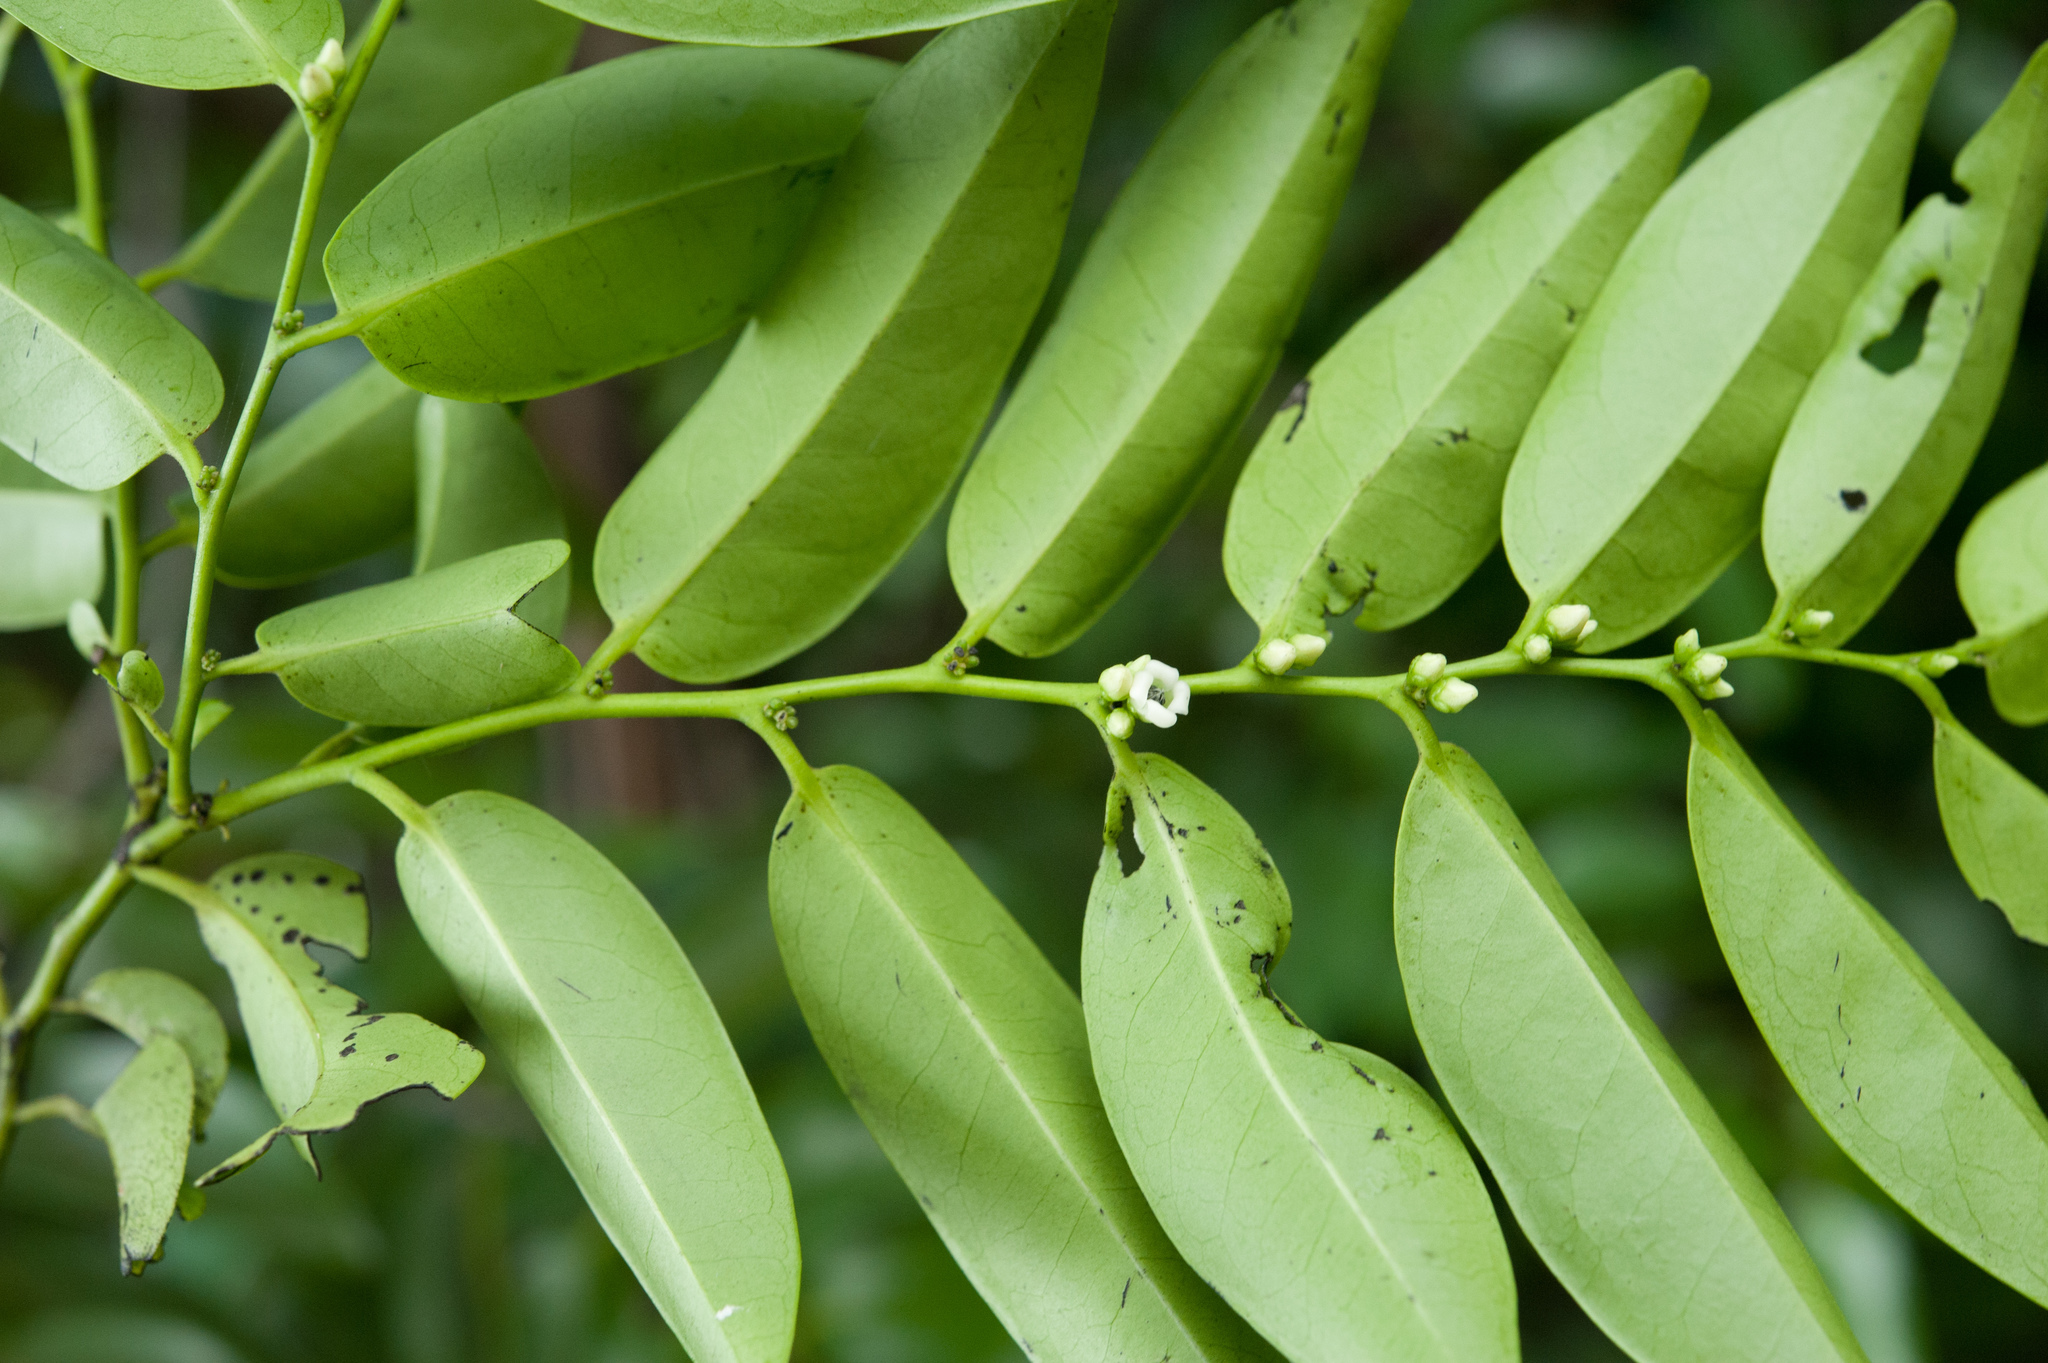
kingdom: Plantae
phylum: Tracheophyta
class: Magnoliopsida
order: Ericales
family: Ebenaceae
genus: Diospyros
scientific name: Diospyros kotoensis
